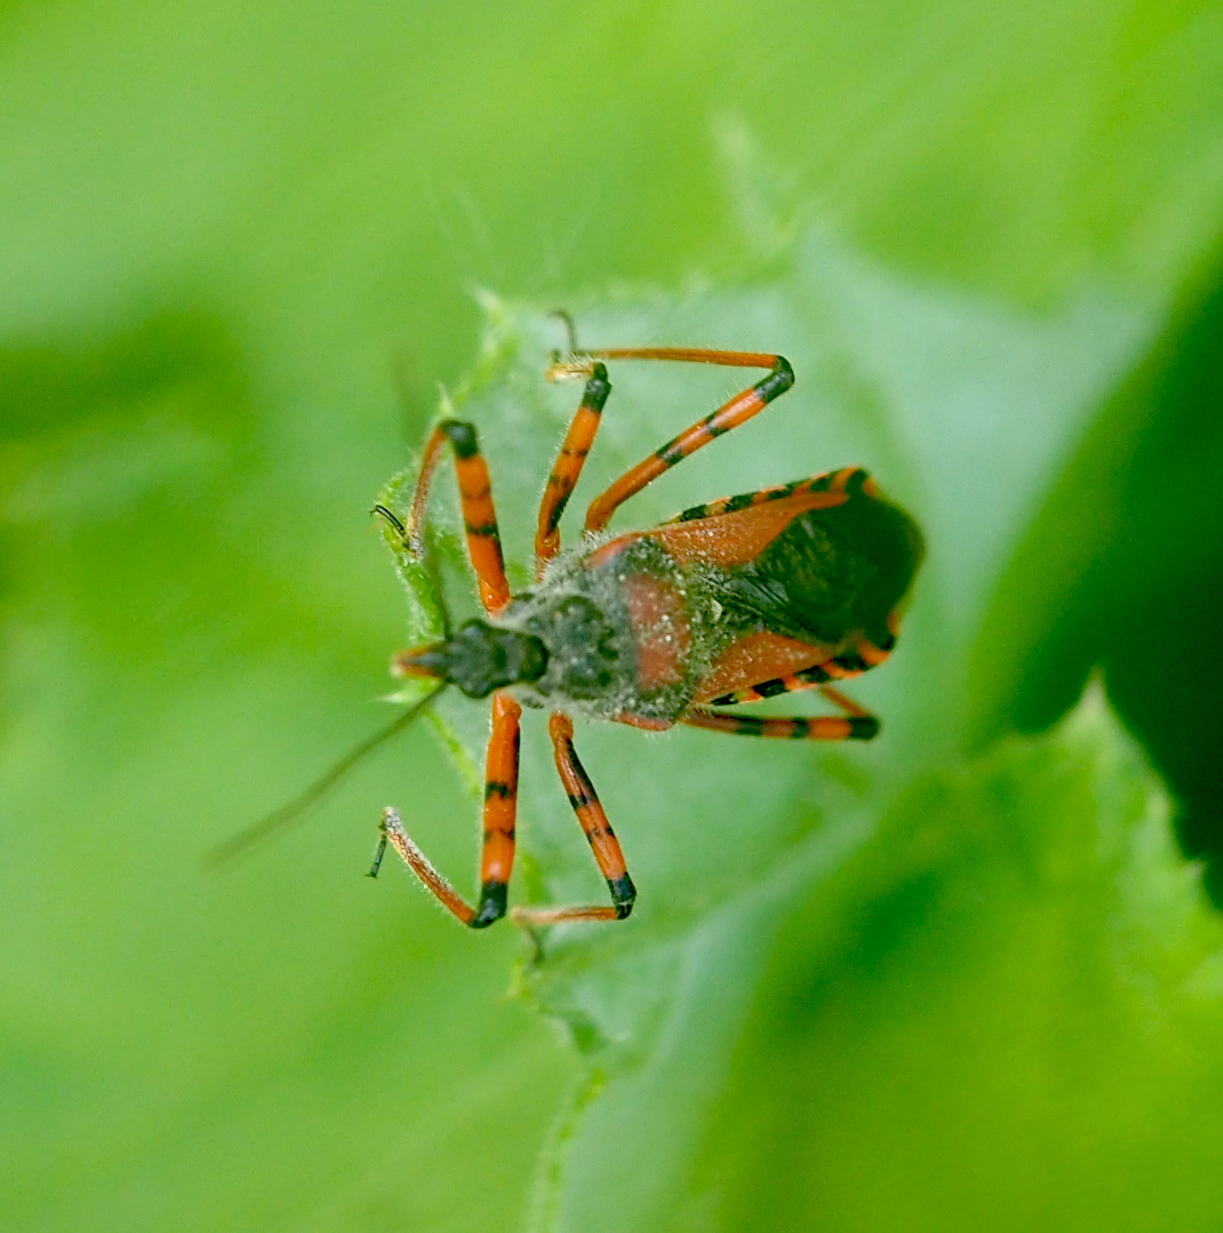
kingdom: Animalia
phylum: Arthropoda
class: Insecta
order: Hemiptera
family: Reduviidae
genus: Rhynocoris
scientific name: Rhynocoris iracundus
